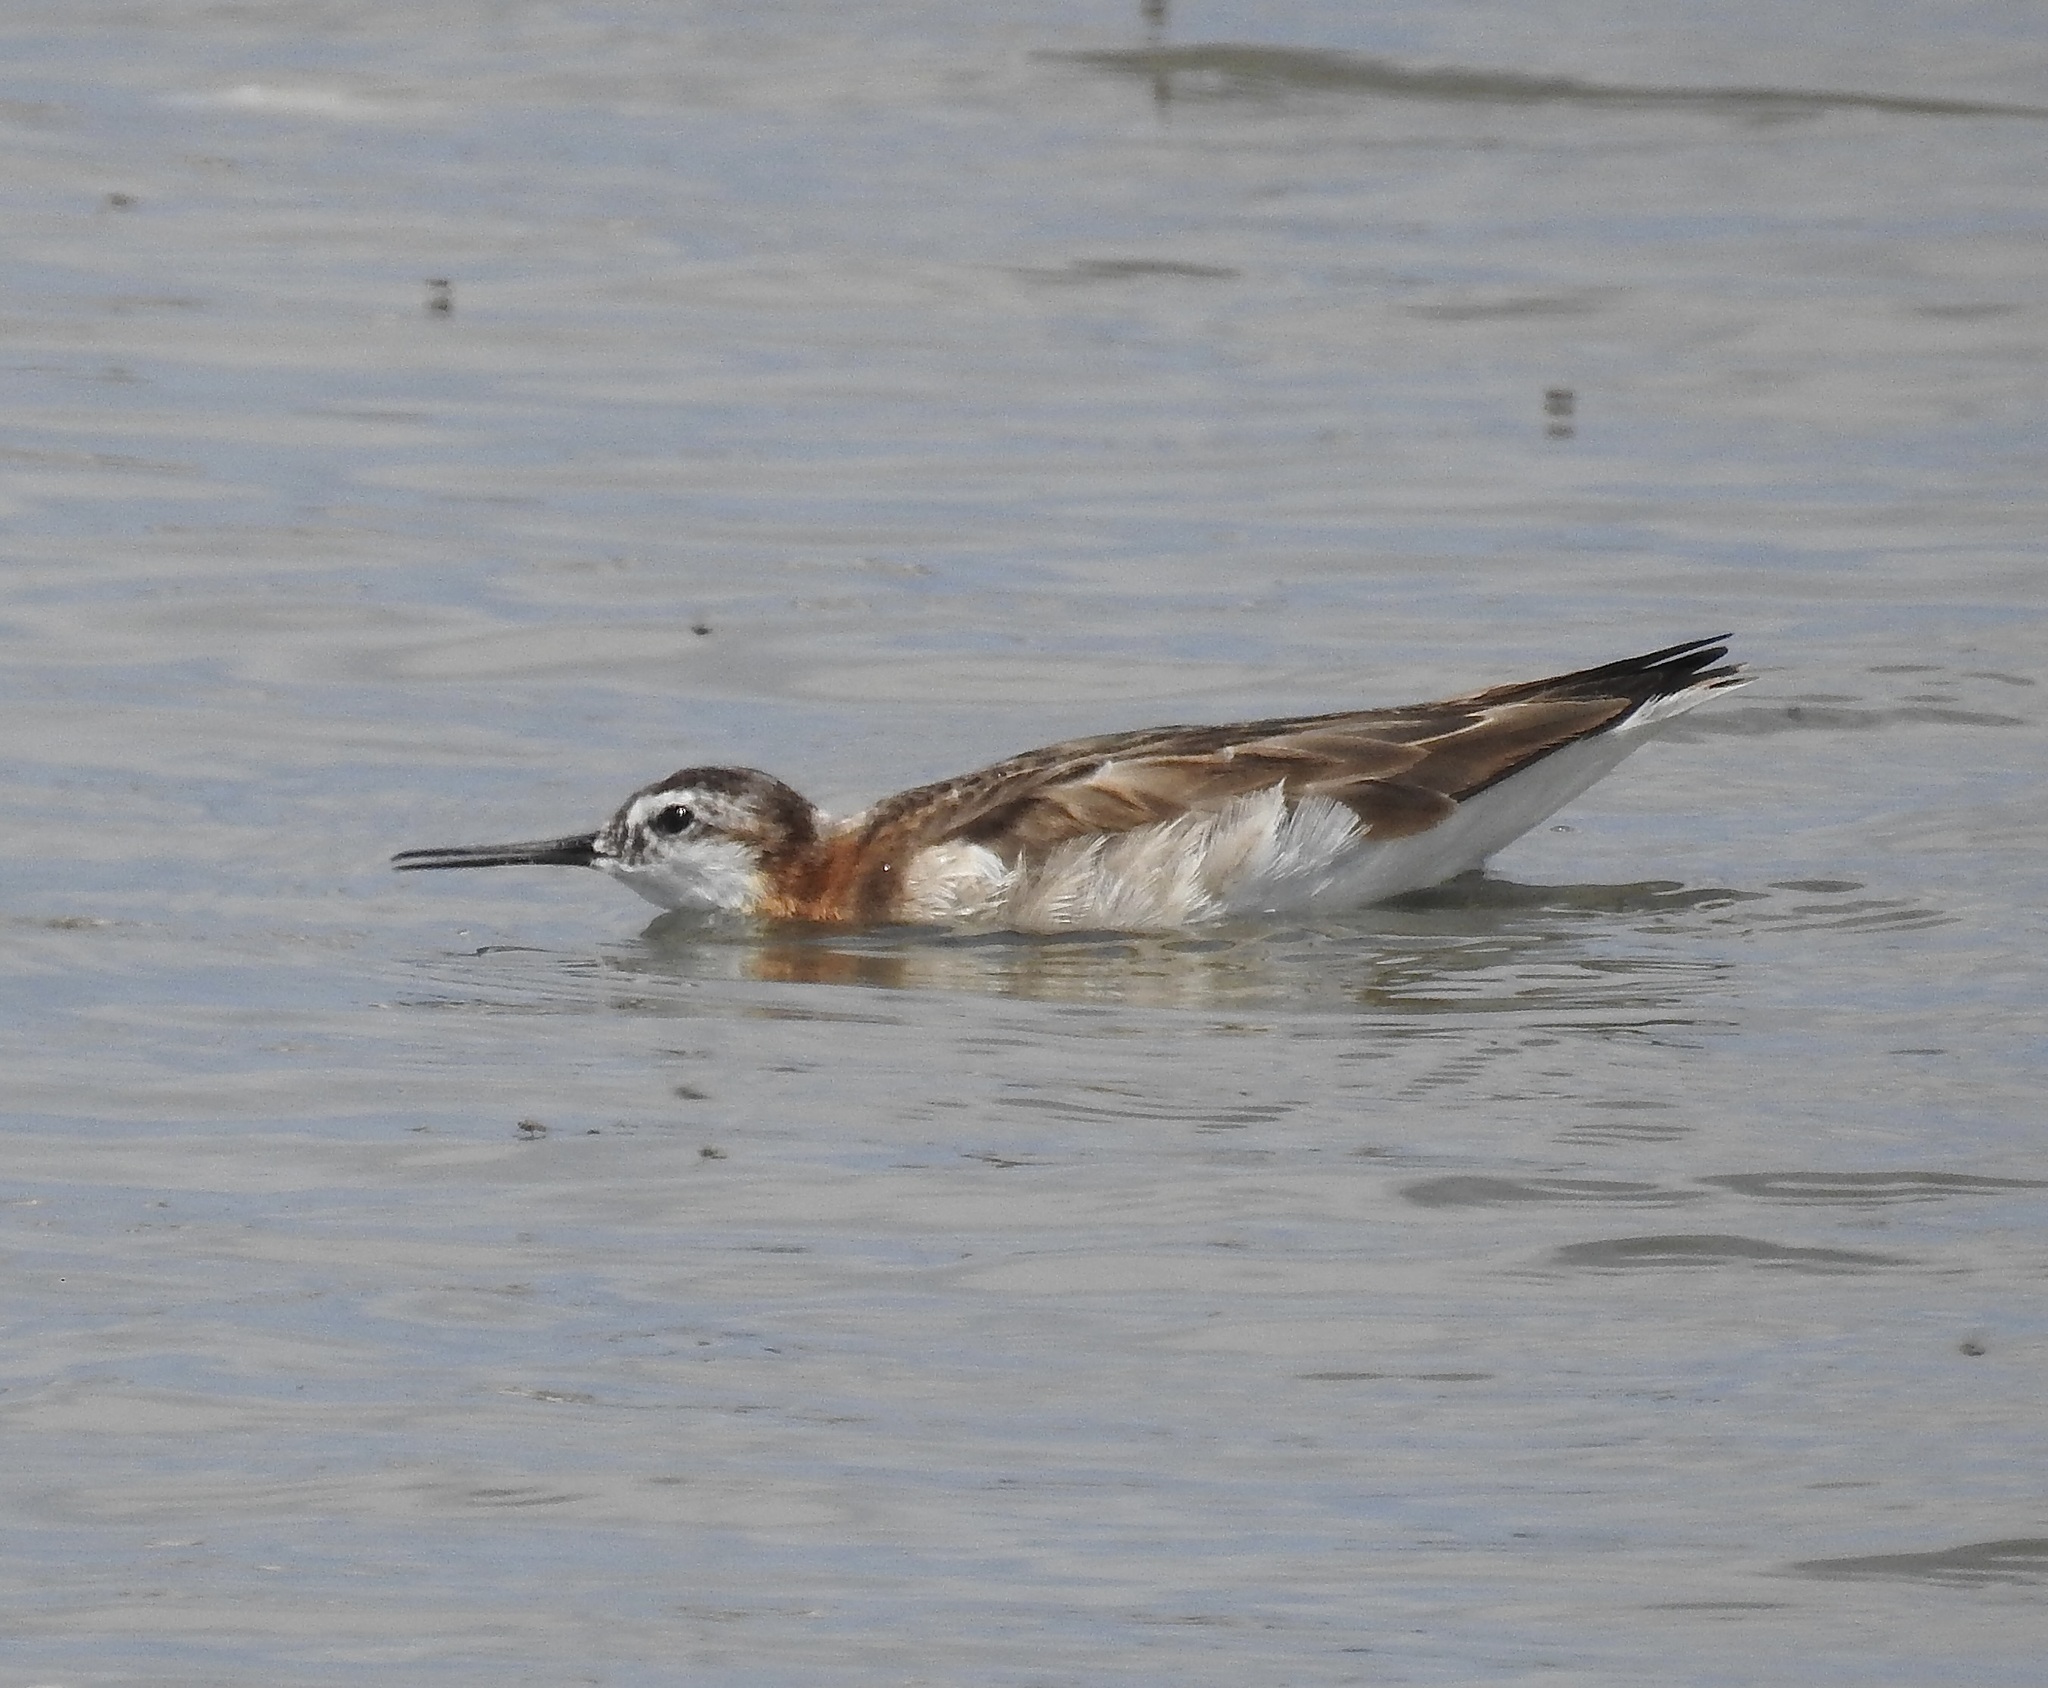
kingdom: Animalia
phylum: Chordata
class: Aves
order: Charadriiformes
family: Scolopacidae
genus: Phalaropus
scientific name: Phalaropus tricolor
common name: Wilson's phalarope
